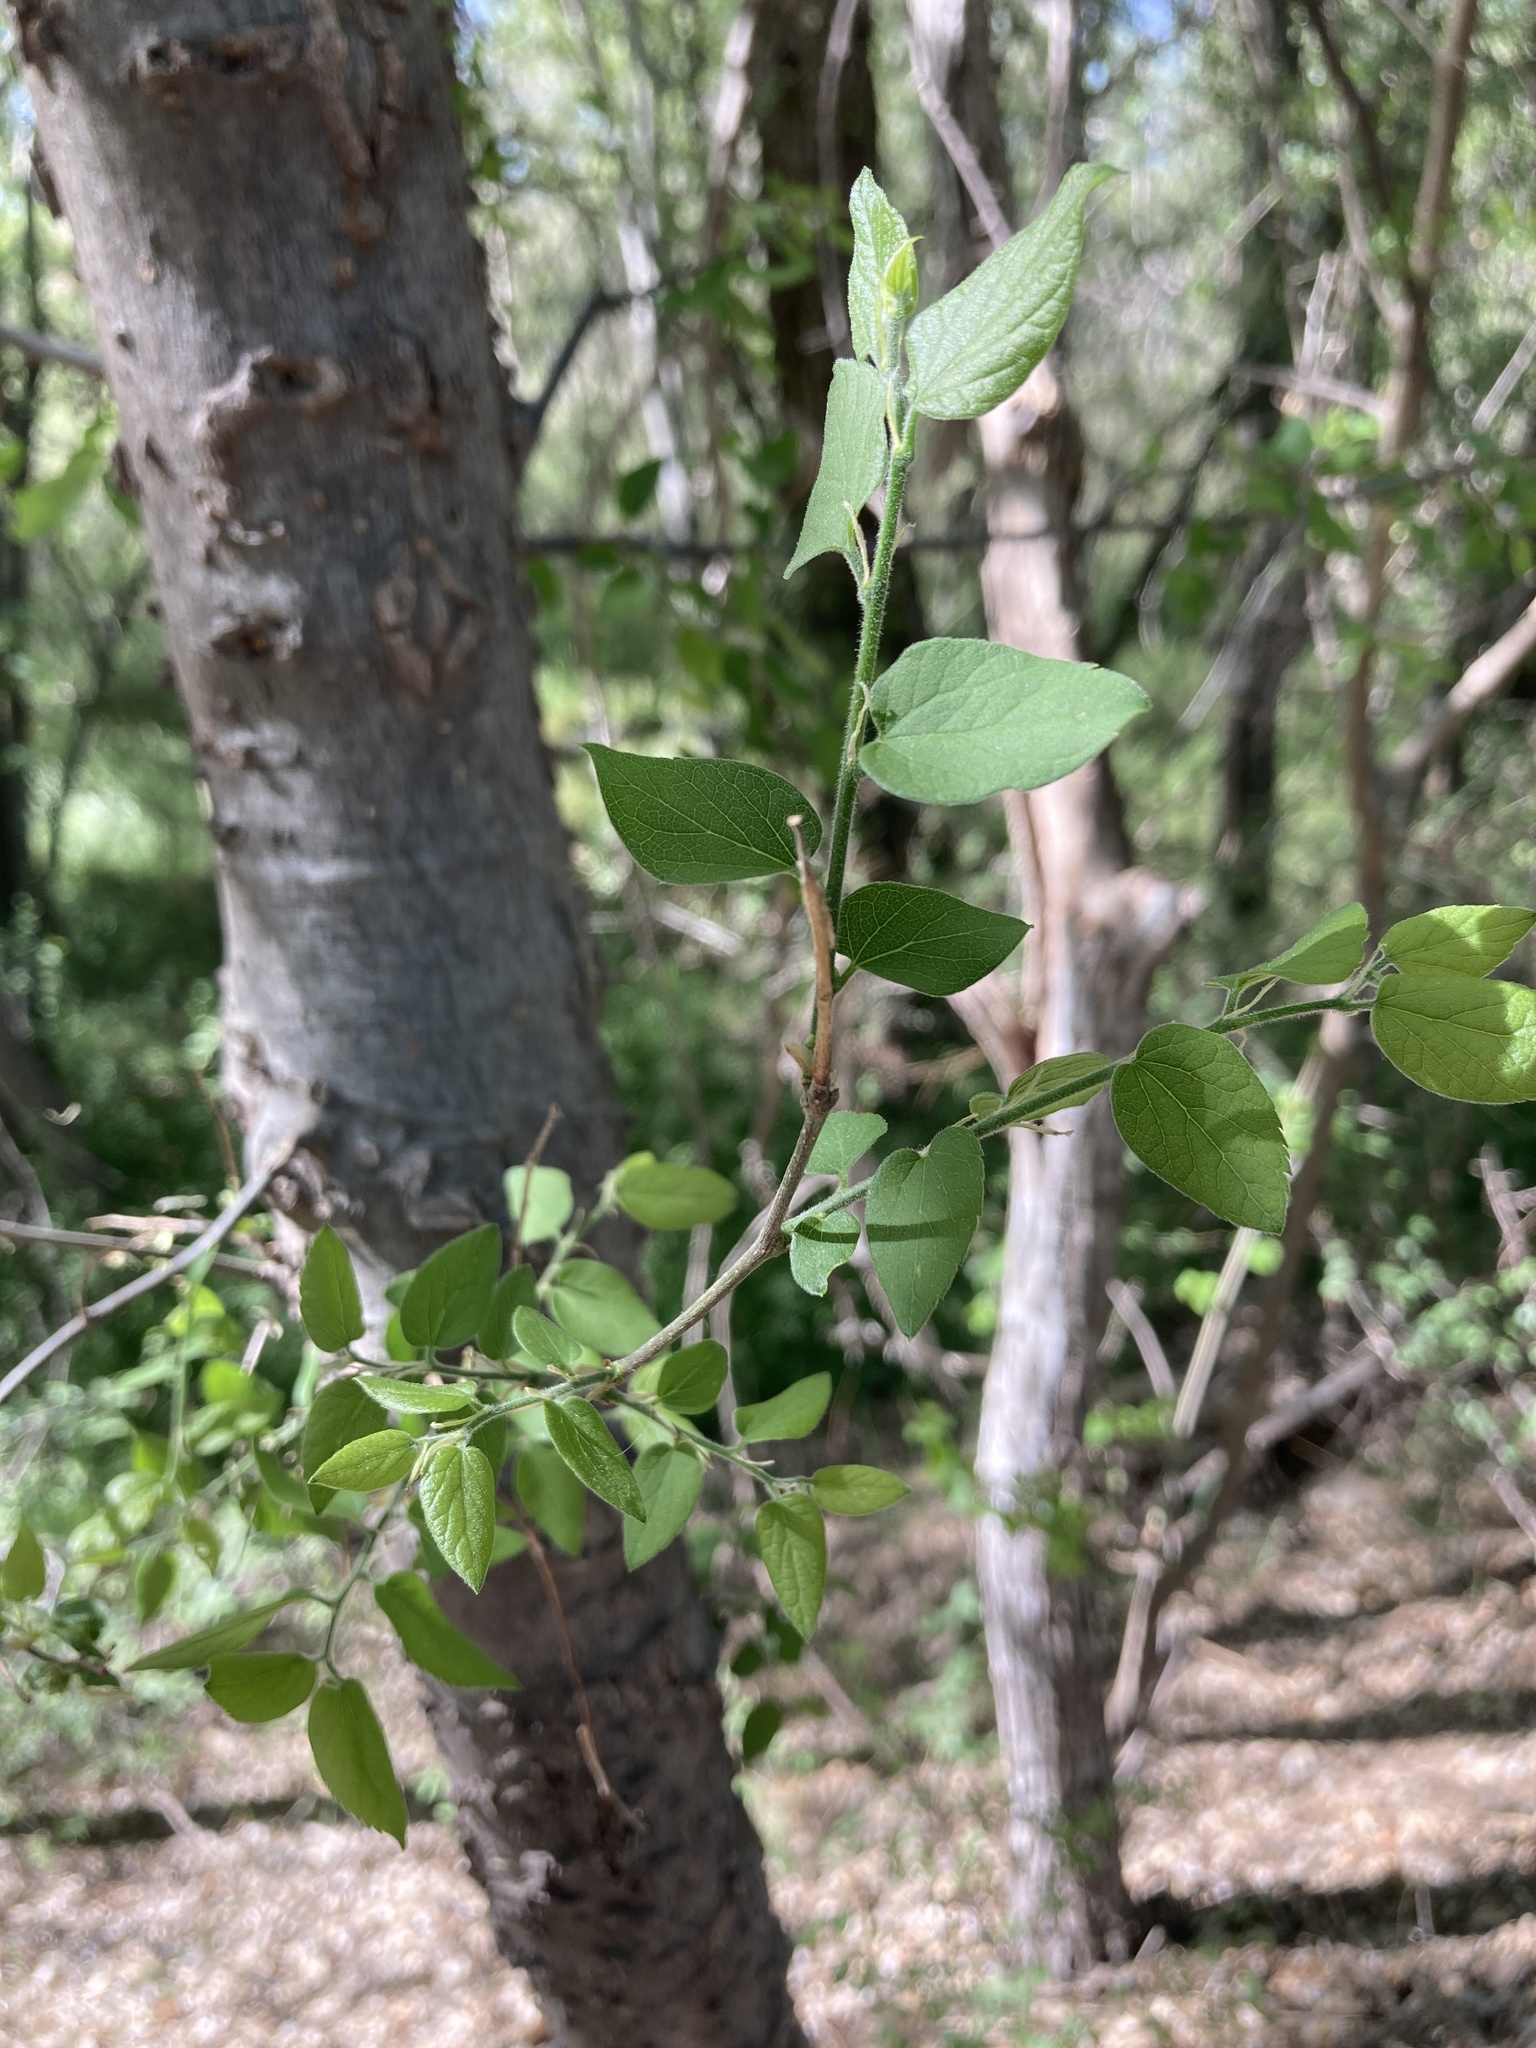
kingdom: Plantae
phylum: Tracheophyta
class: Magnoliopsida
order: Rosales
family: Cannabaceae
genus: Celtis
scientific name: Celtis reticulata
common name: Netleaf hackberry
